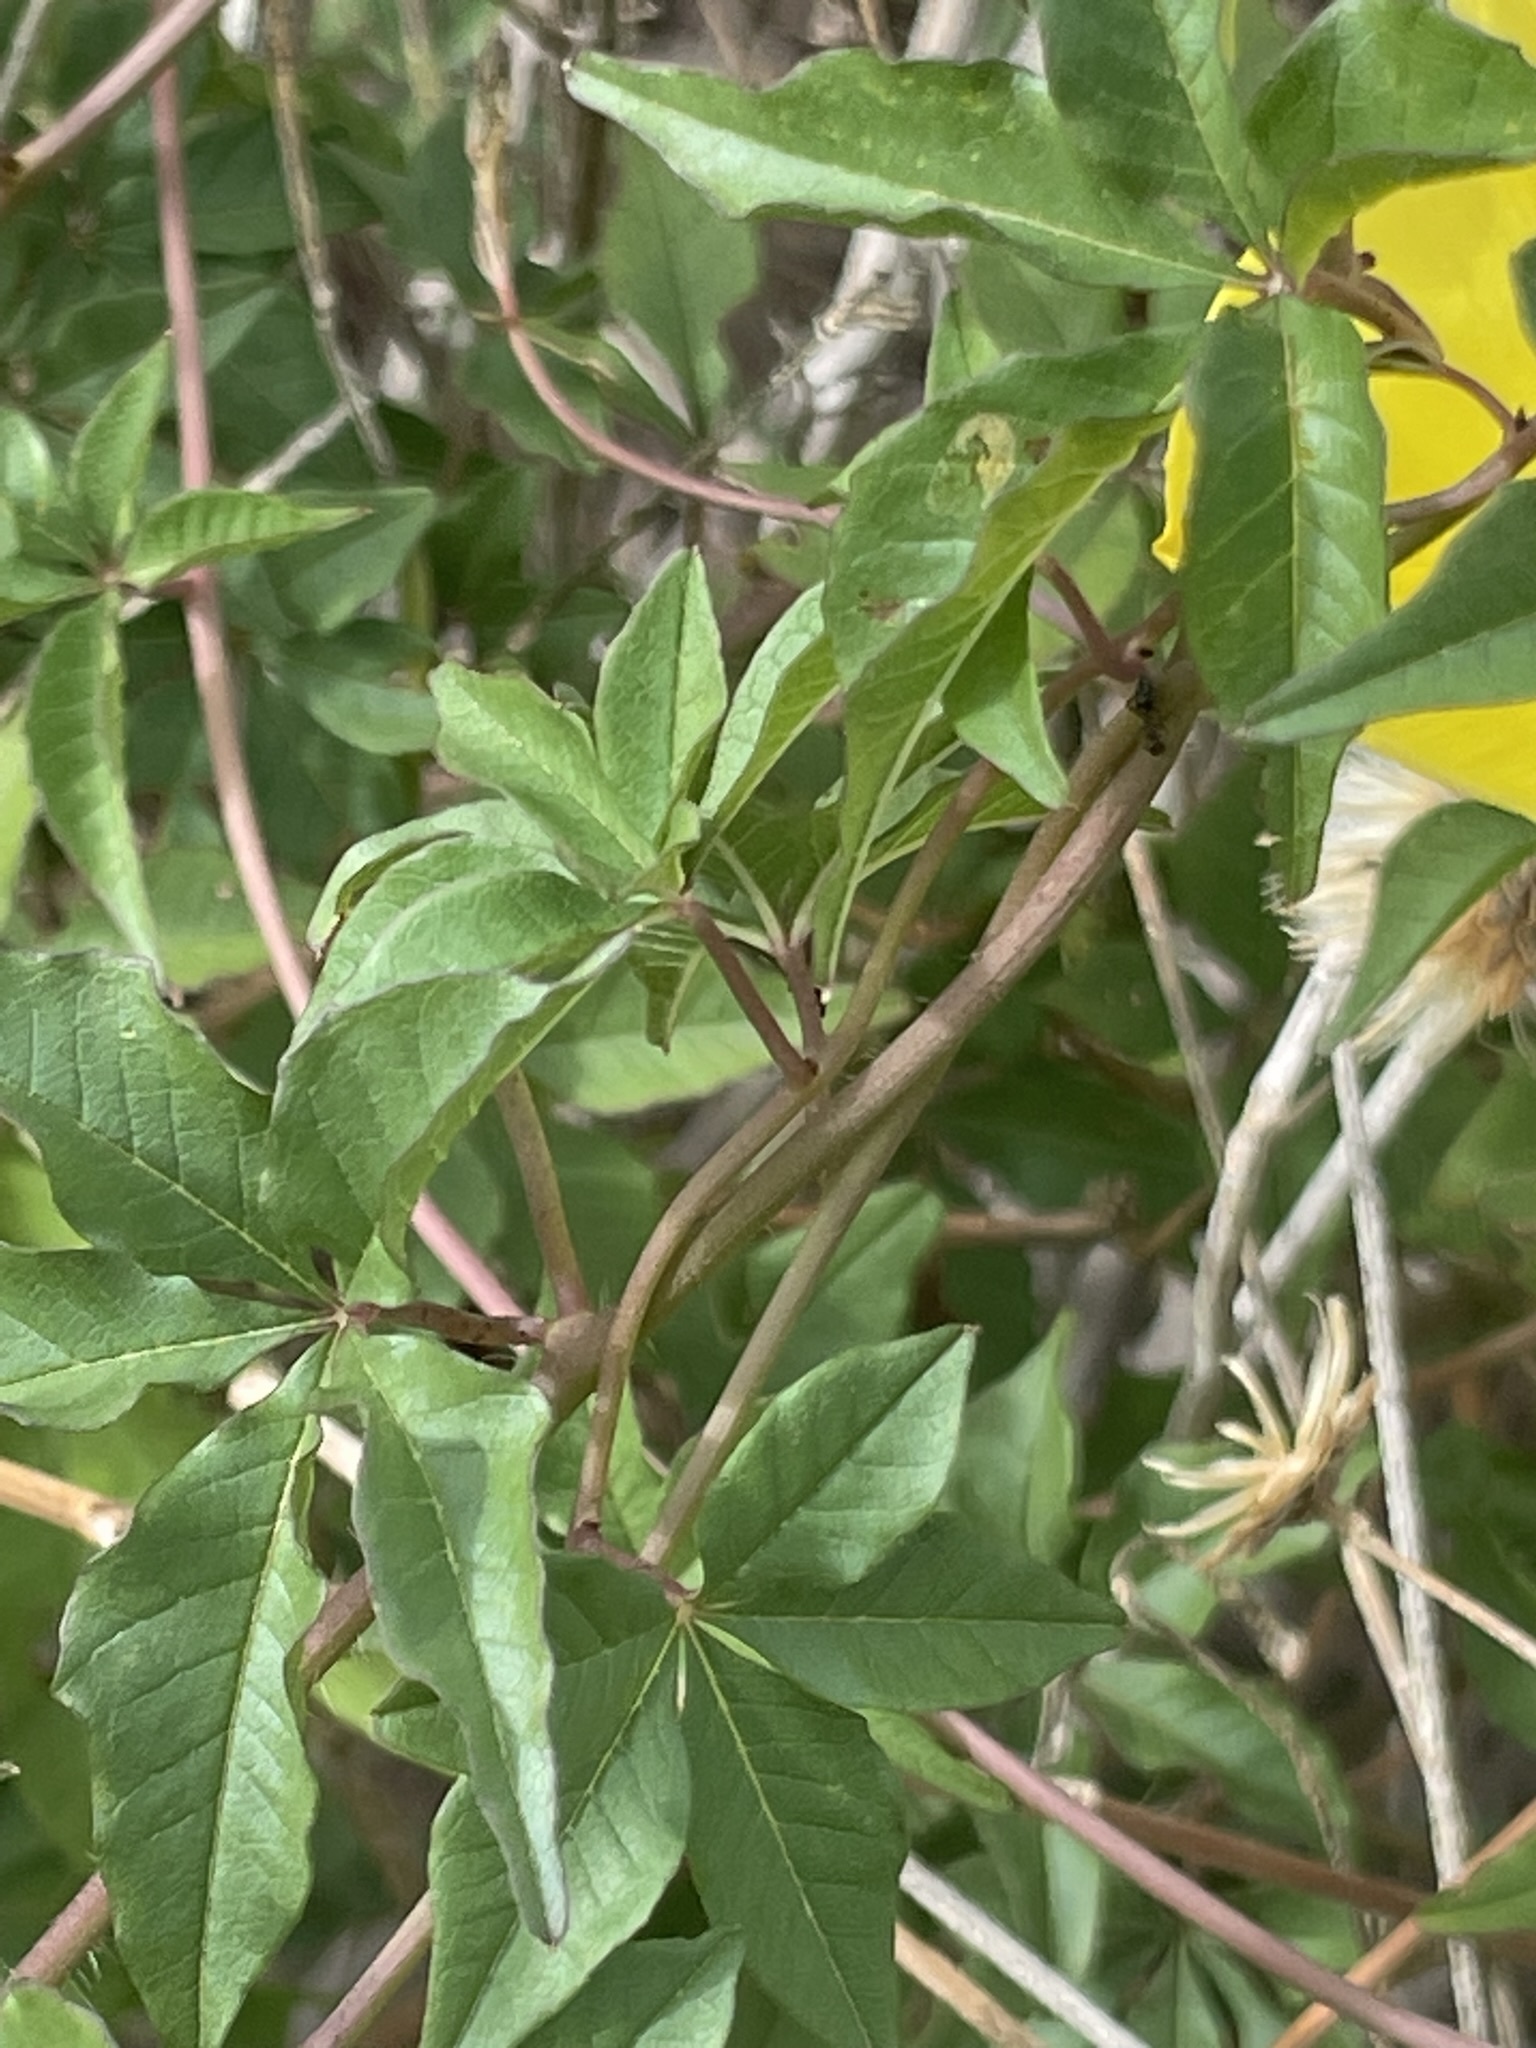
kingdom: Plantae
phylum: Tracheophyta
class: Magnoliopsida
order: Solanales
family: Convolvulaceae
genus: Distimake
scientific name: Distimake aureus
